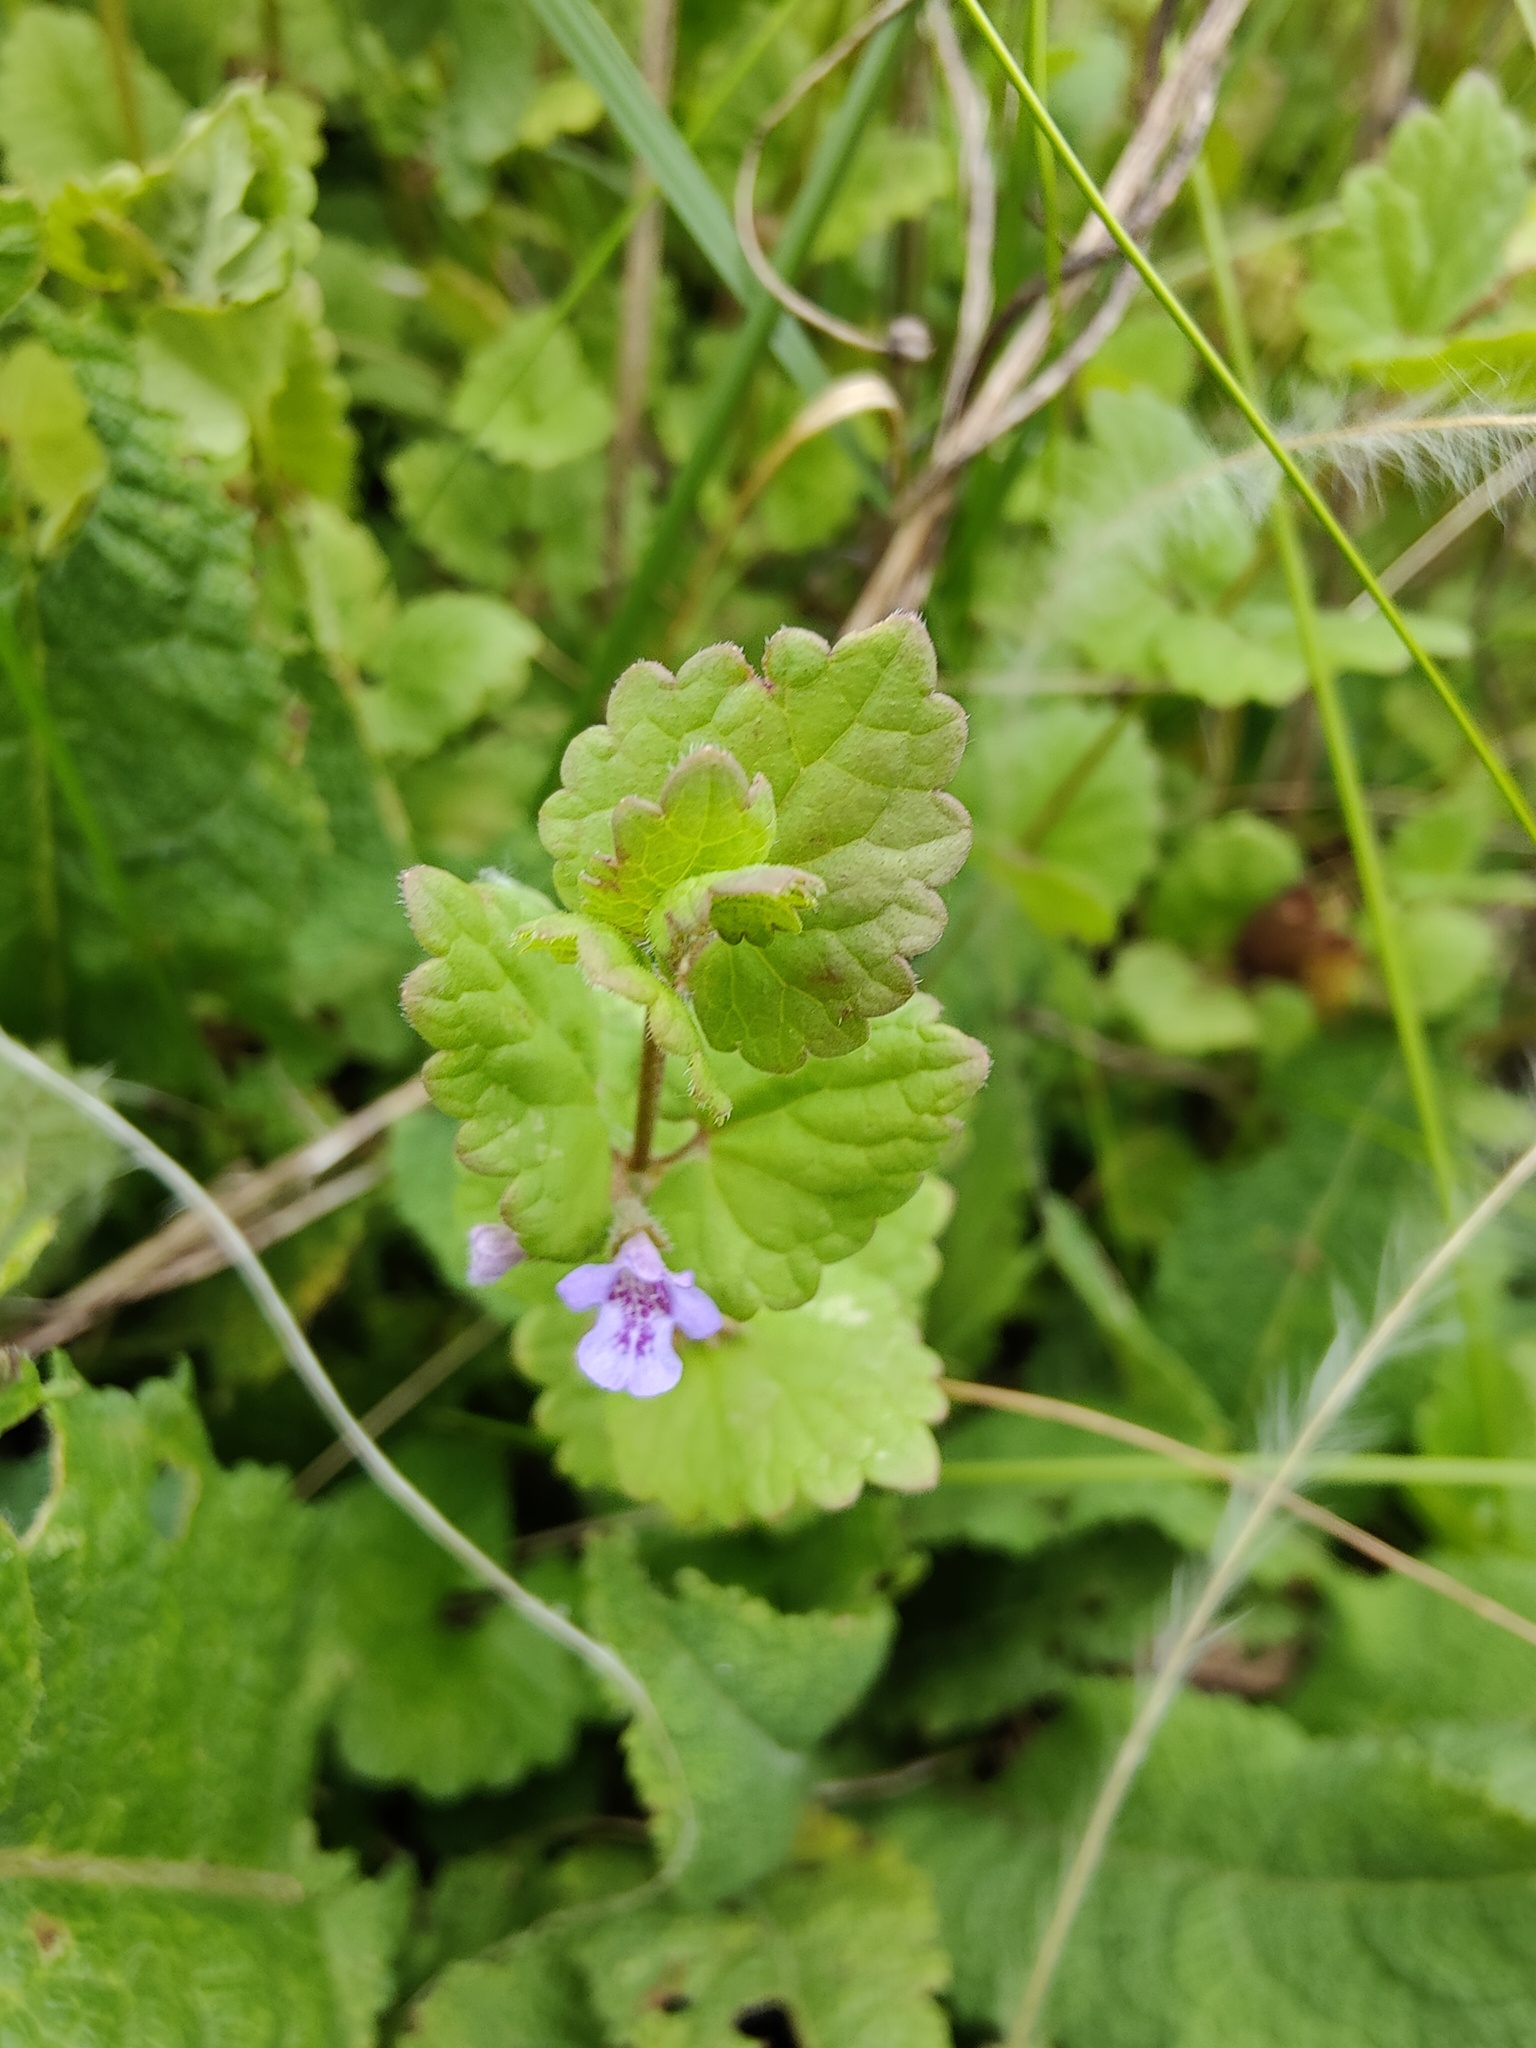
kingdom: Plantae
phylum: Tracheophyta
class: Magnoliopsida
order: Lamiales
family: Lamiaceae
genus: Glechoma
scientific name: Glechoma hederacea
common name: Ground ivy
